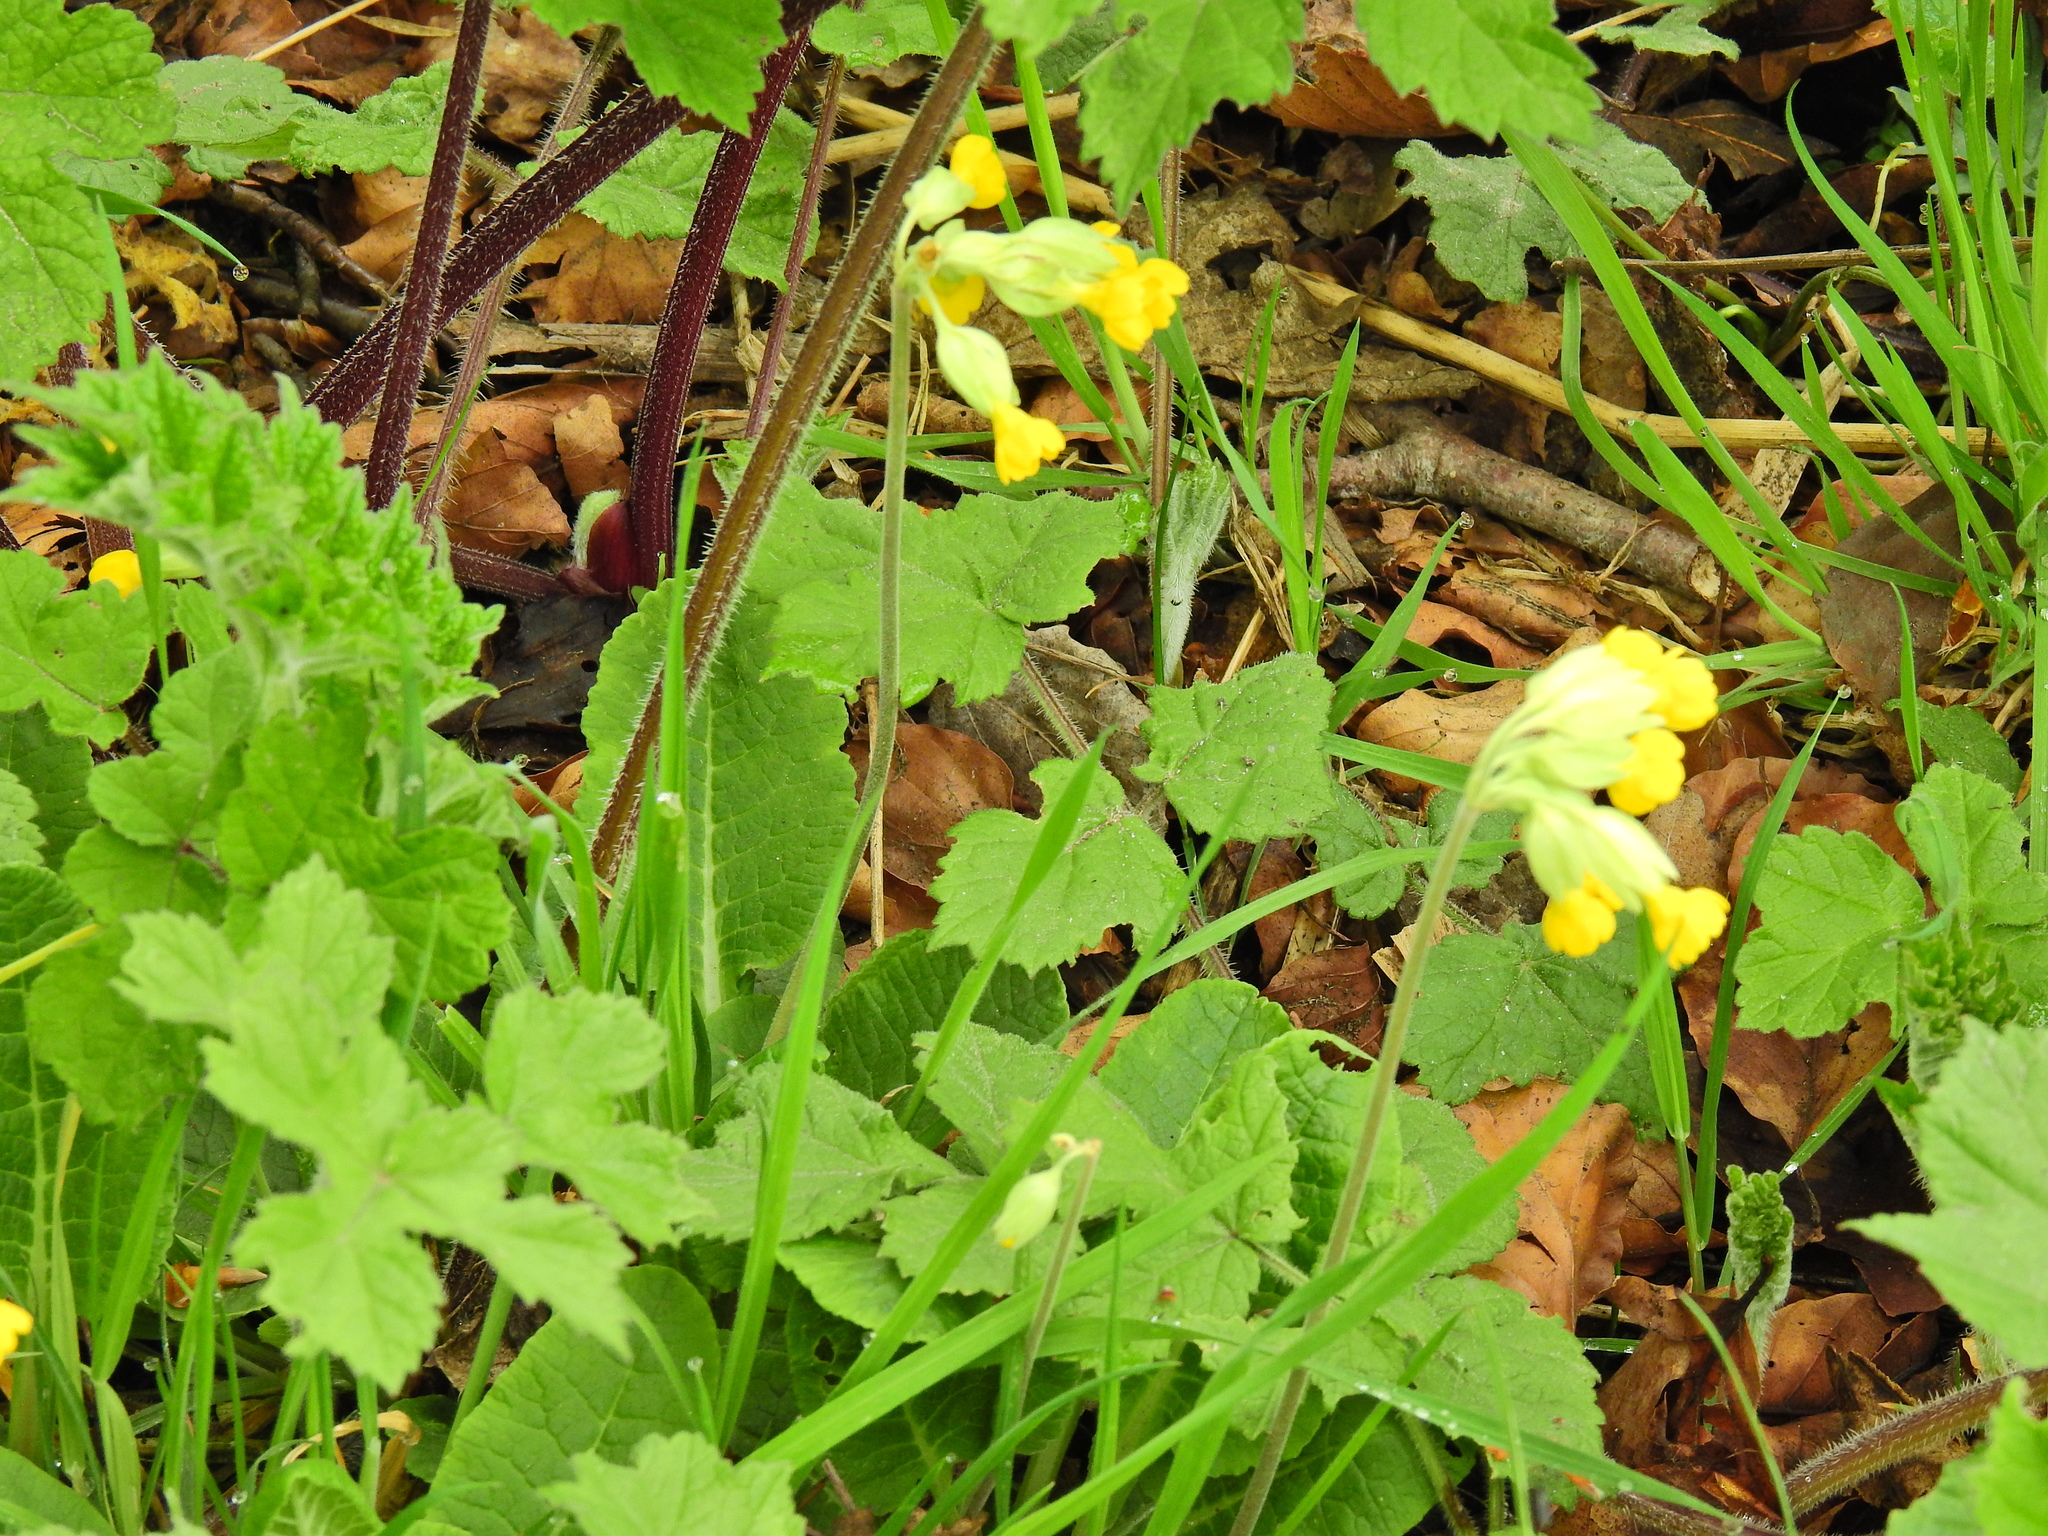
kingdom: Plantae
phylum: Tracheophyta
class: Magnoliopsida
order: Ericales
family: Primulaceae
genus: Primula
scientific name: Primula veris
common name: Cowslip
